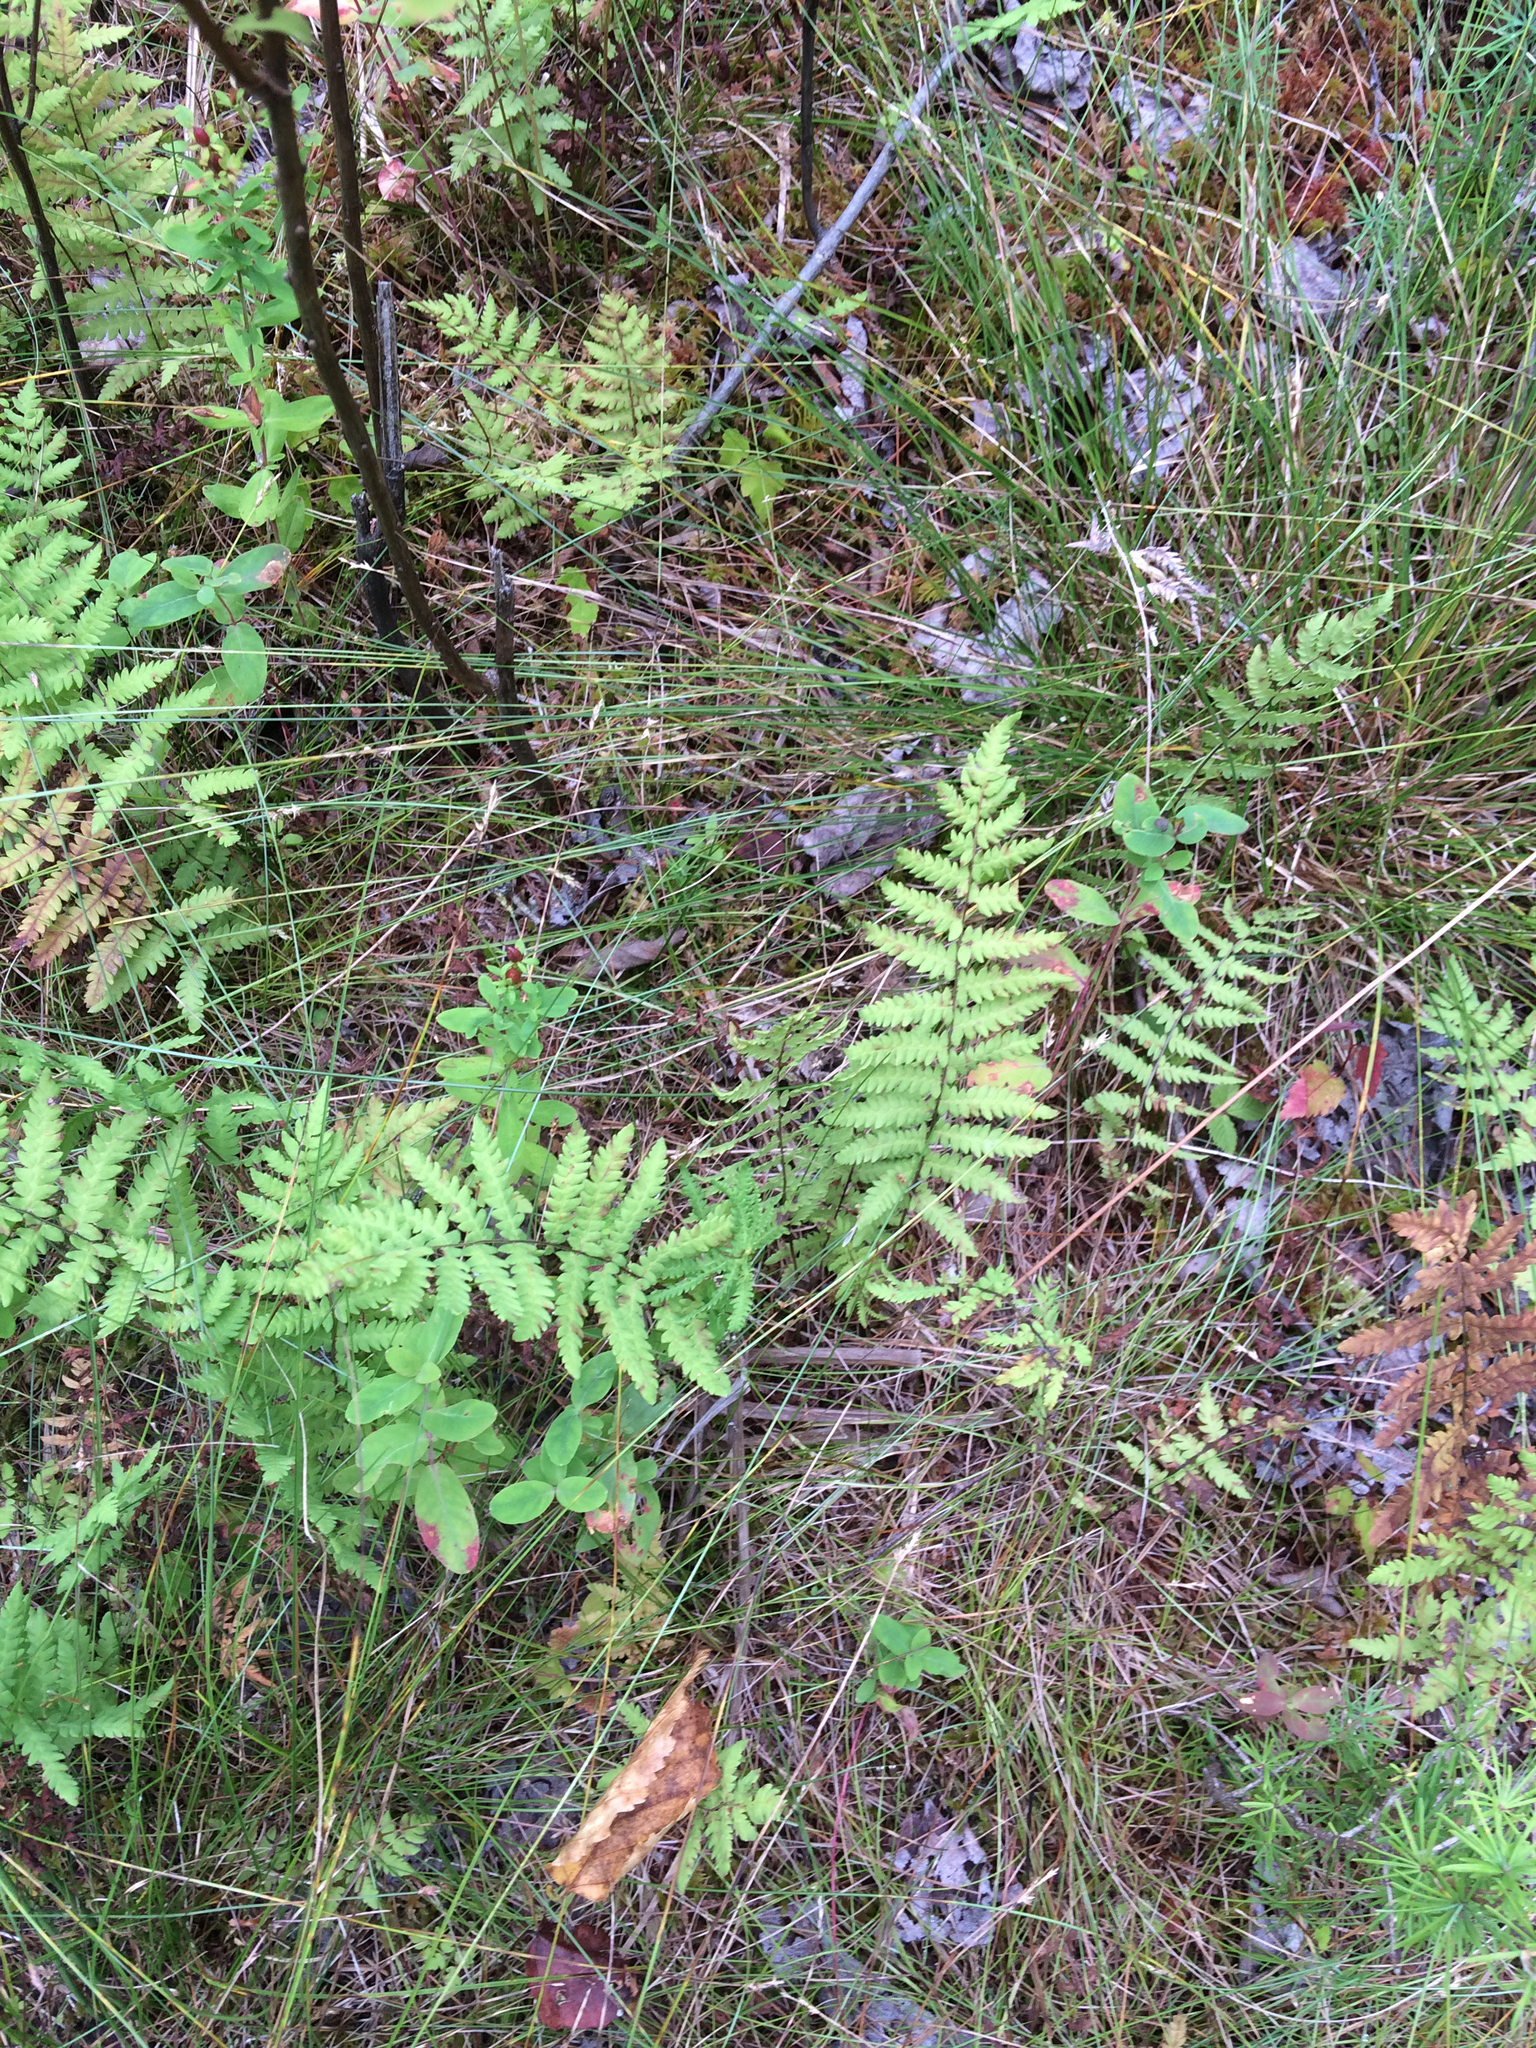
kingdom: Plantae
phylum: Tracheophyta
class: Polypodiopsida
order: Polypodiales
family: Thelypteridaceae
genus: Thelypteris
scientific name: Thelypteris palustris
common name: Marsh fern
